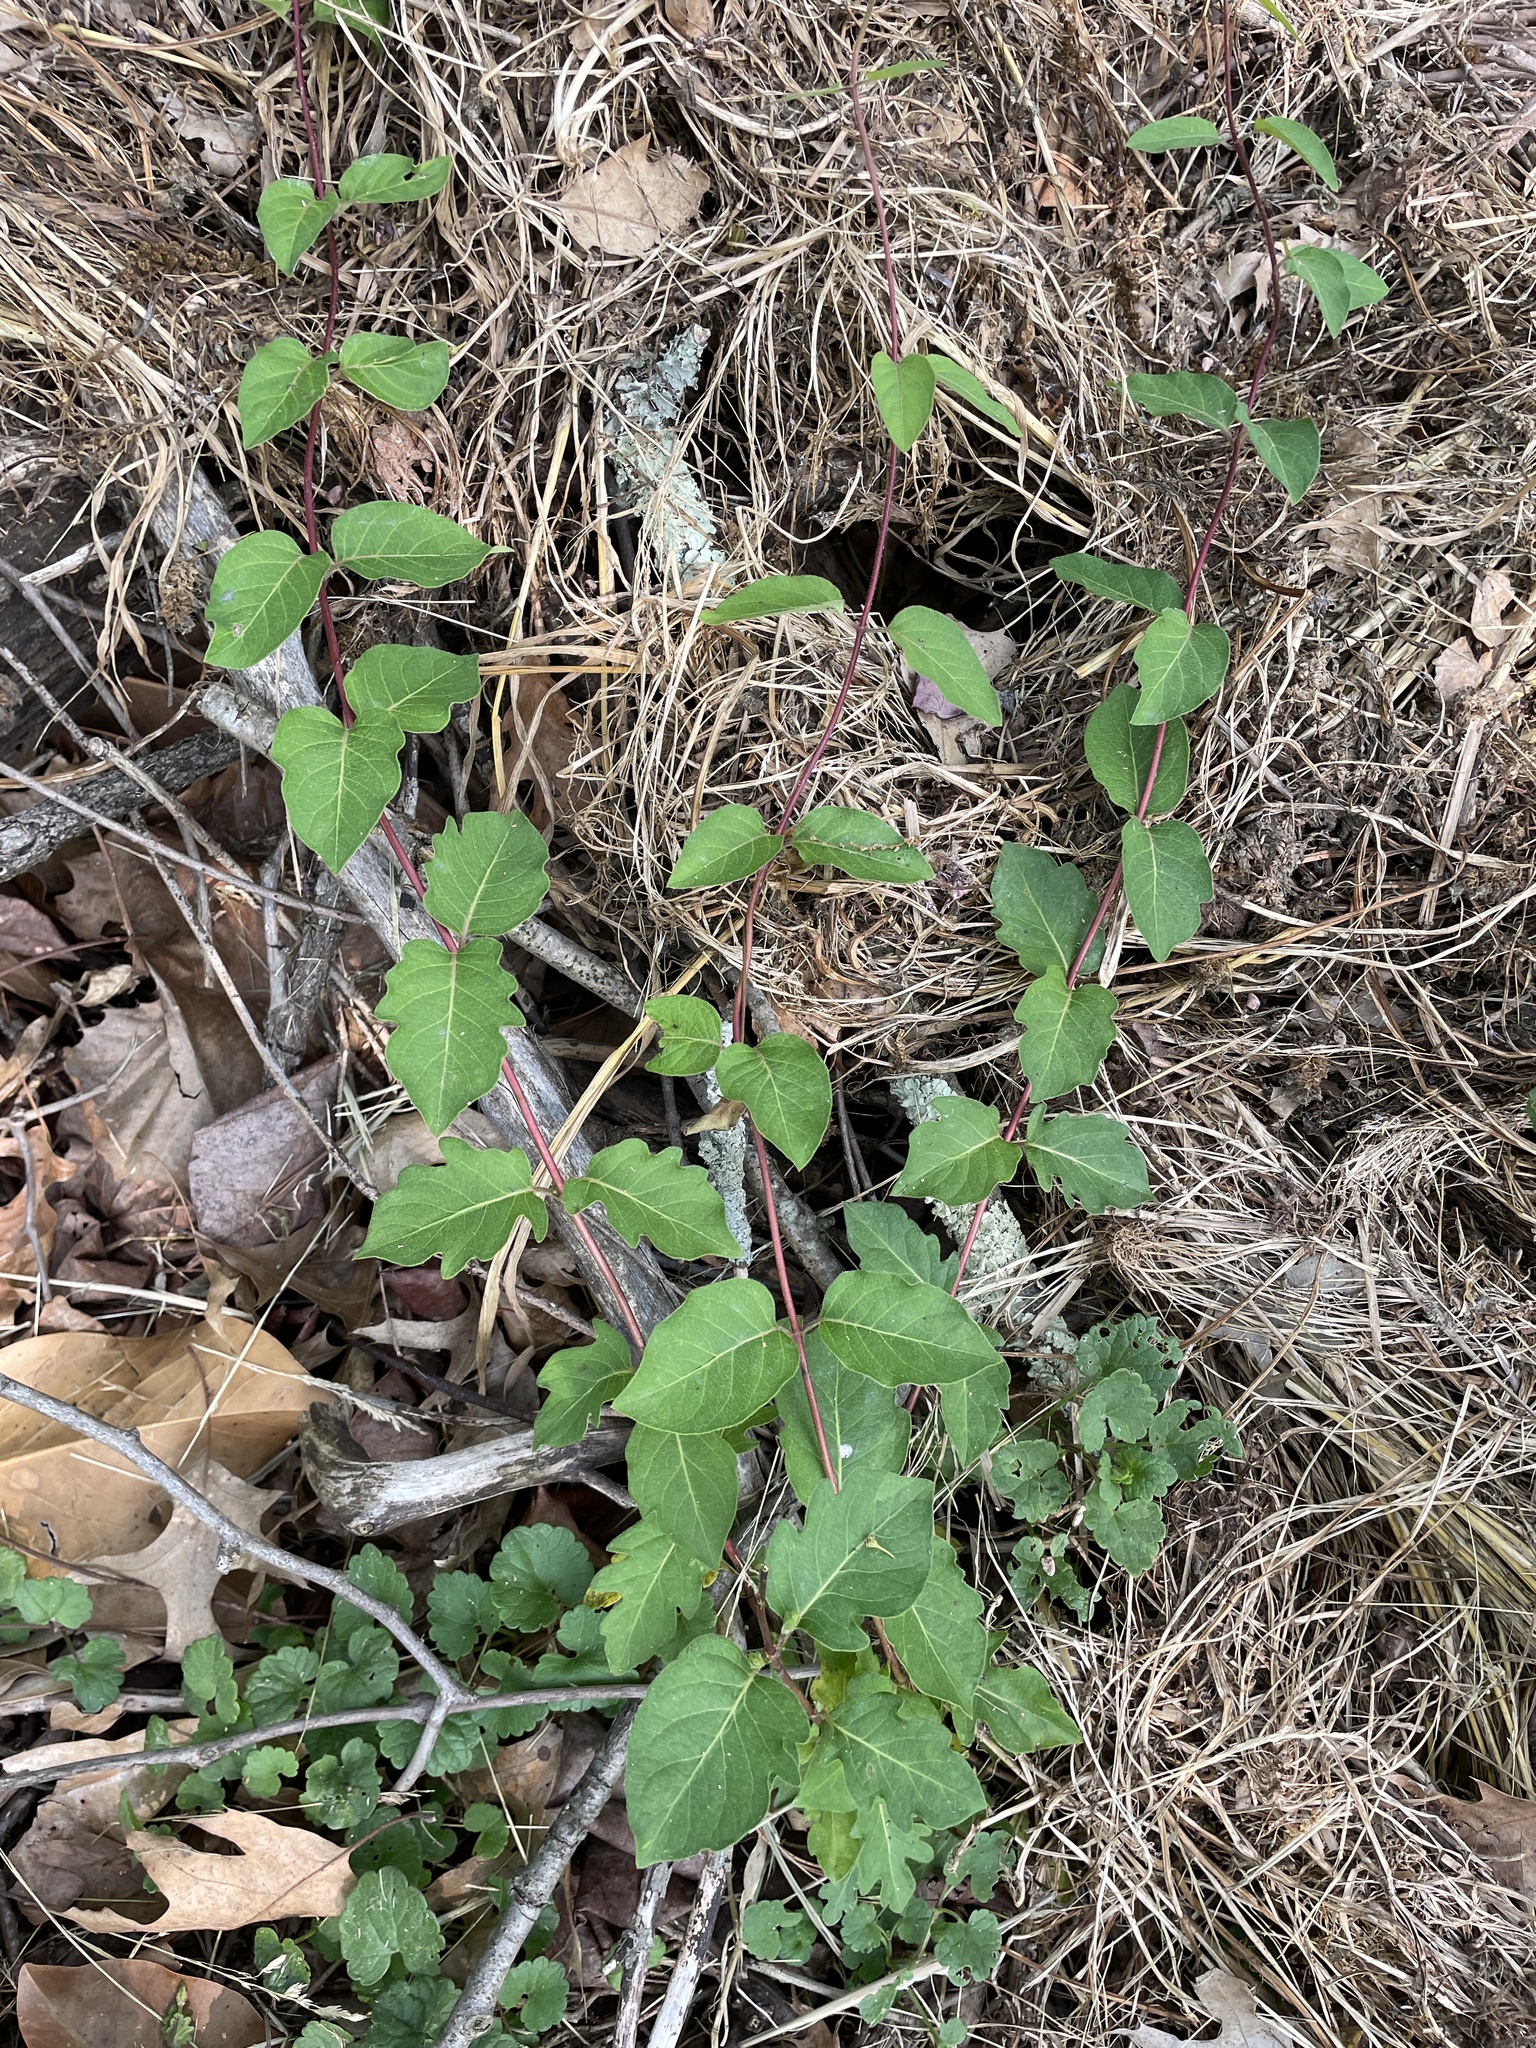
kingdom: Plantae
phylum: Tracheophyta
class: Magnoliopsida
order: Dipsacales
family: Caprifoliaceae
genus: Lonicera
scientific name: Lonicera japonica
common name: Japanese honeysuckle
